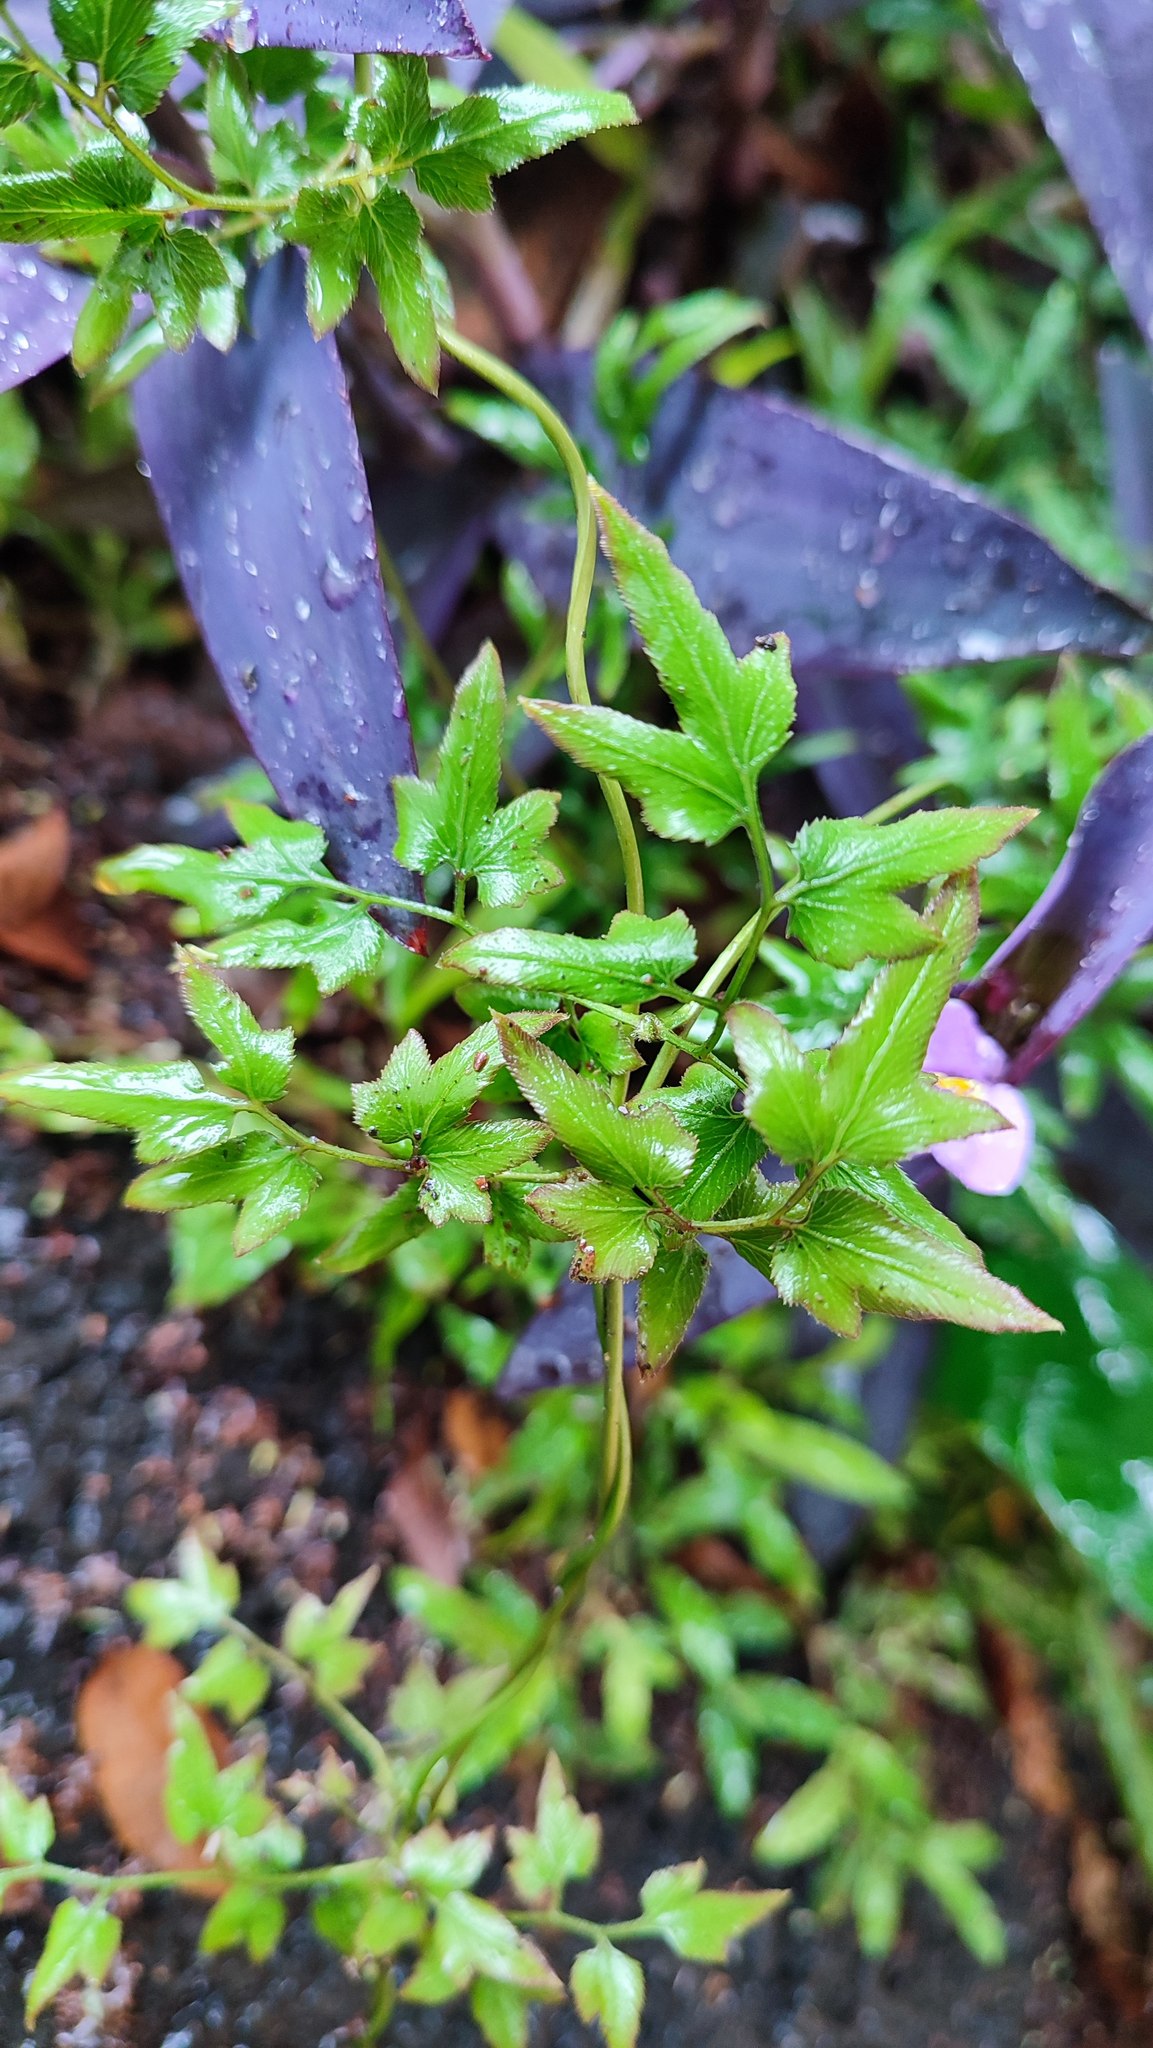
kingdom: Plantae
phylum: Tracheophyta
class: Polypodiopsida
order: Schizaeales
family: Lygodiaceae
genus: Lygodium
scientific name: Lygodium japonicum
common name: Japanese climbing fern
